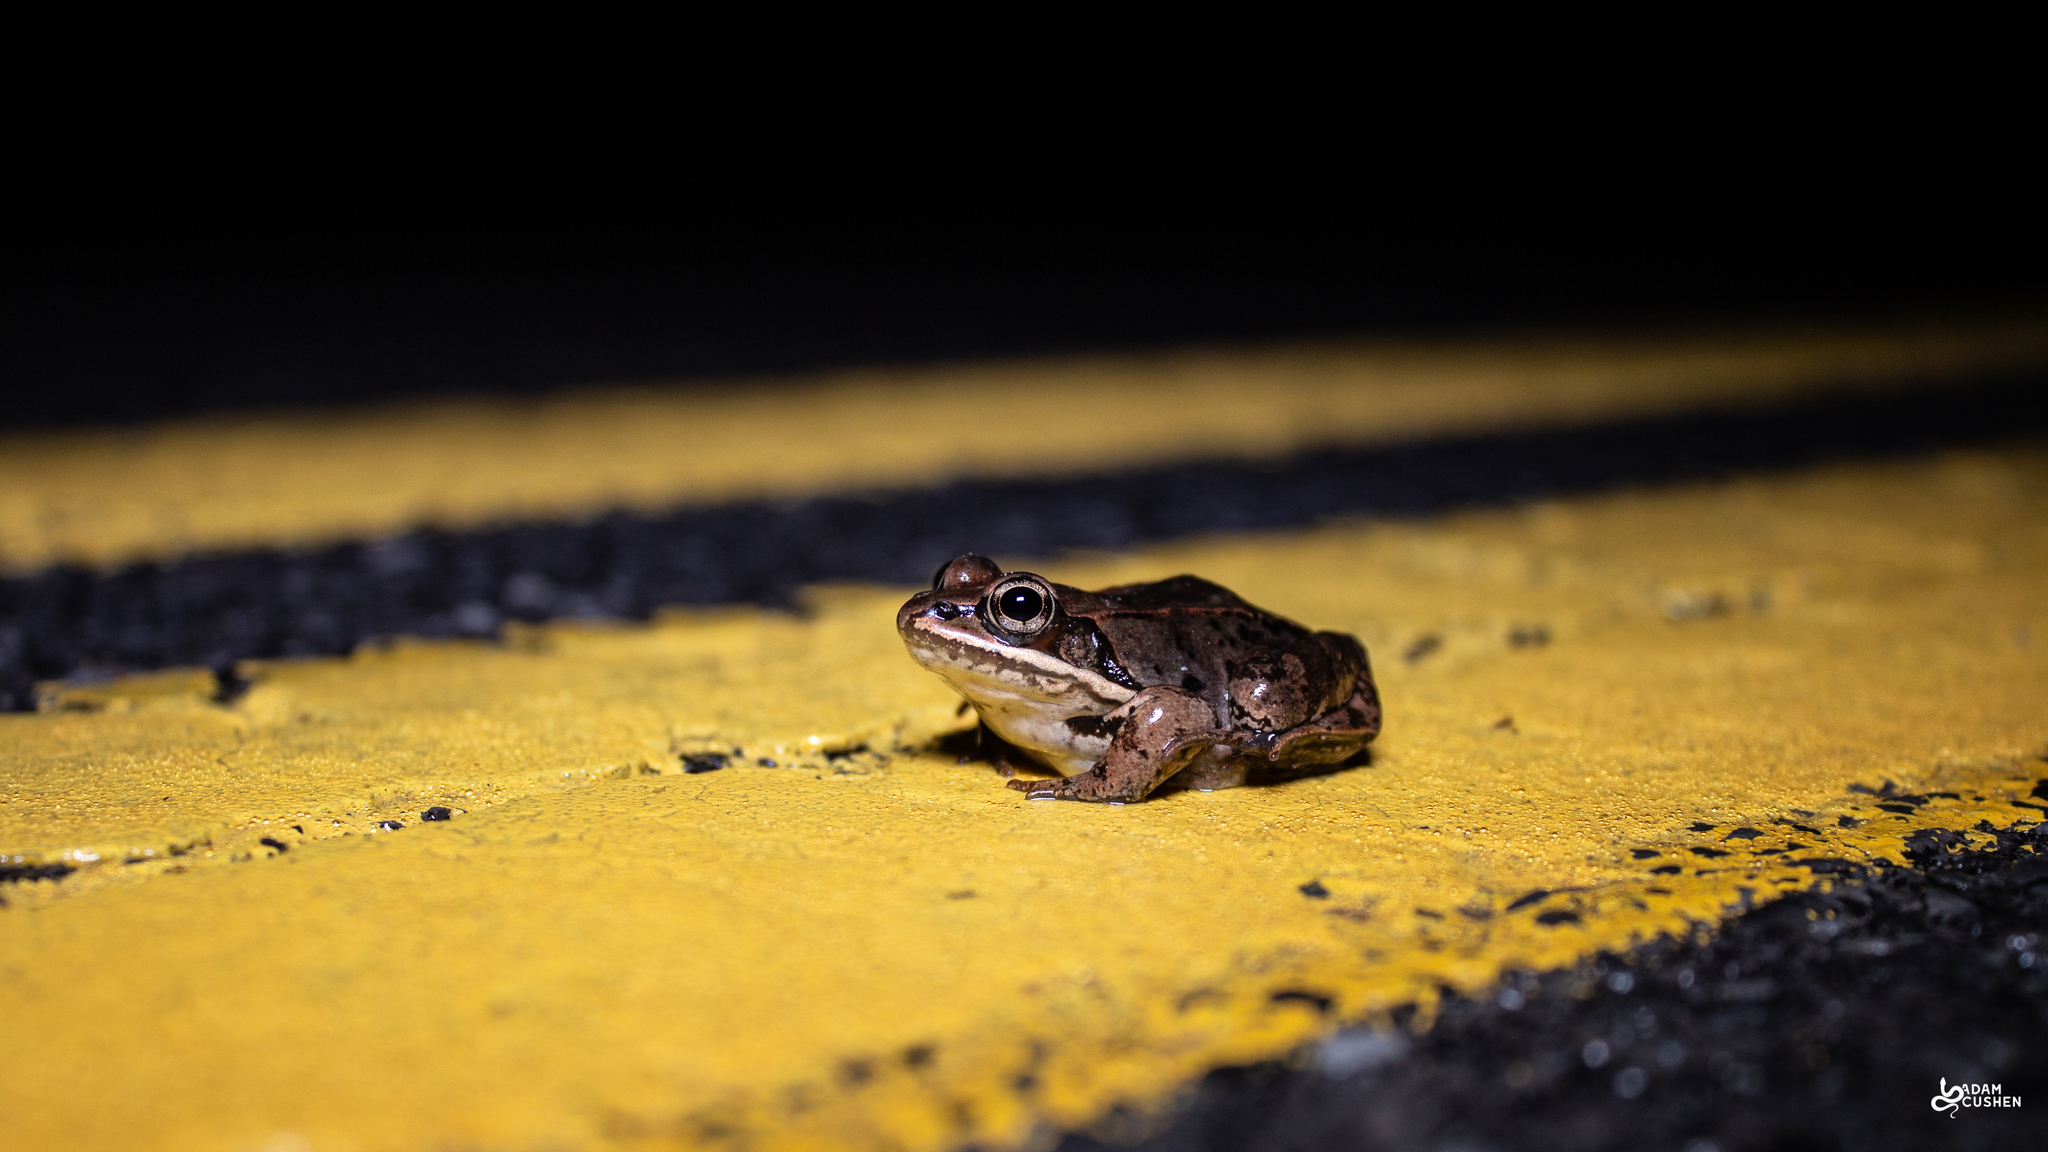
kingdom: Animalia
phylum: Chordata
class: Amphibia
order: Anura
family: Ranidae
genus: Lithobates
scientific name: Lithobates sylvaticus
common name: Wood frog
